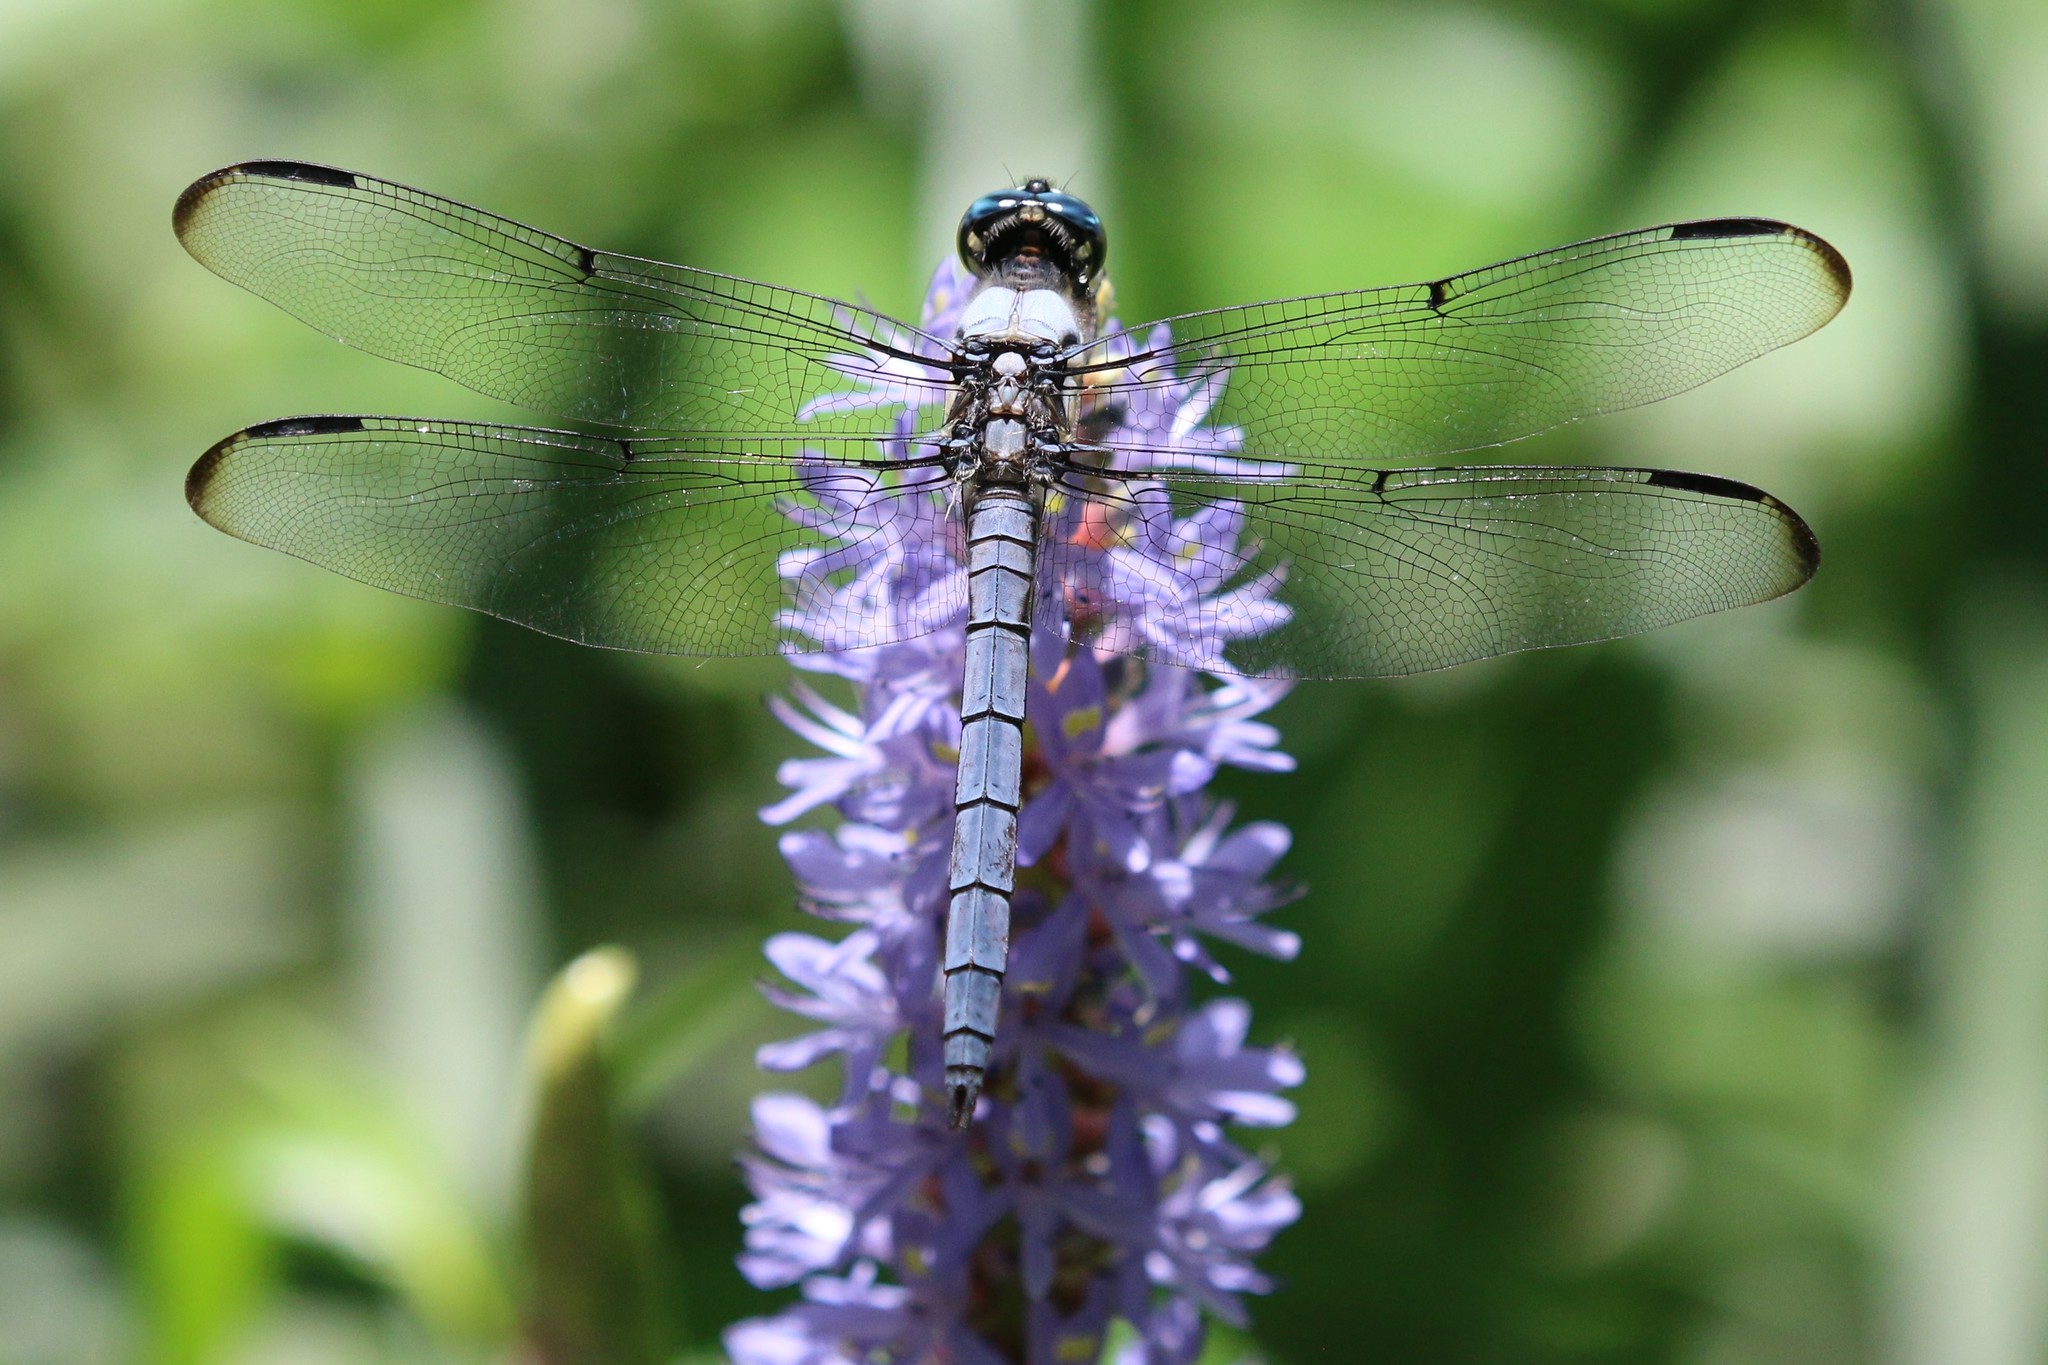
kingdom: Animalia
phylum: Arthropoda
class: Insecta
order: Odonata
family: Libellulidae
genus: Libellula
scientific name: Libellula vibrans
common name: Great blue skimmer
